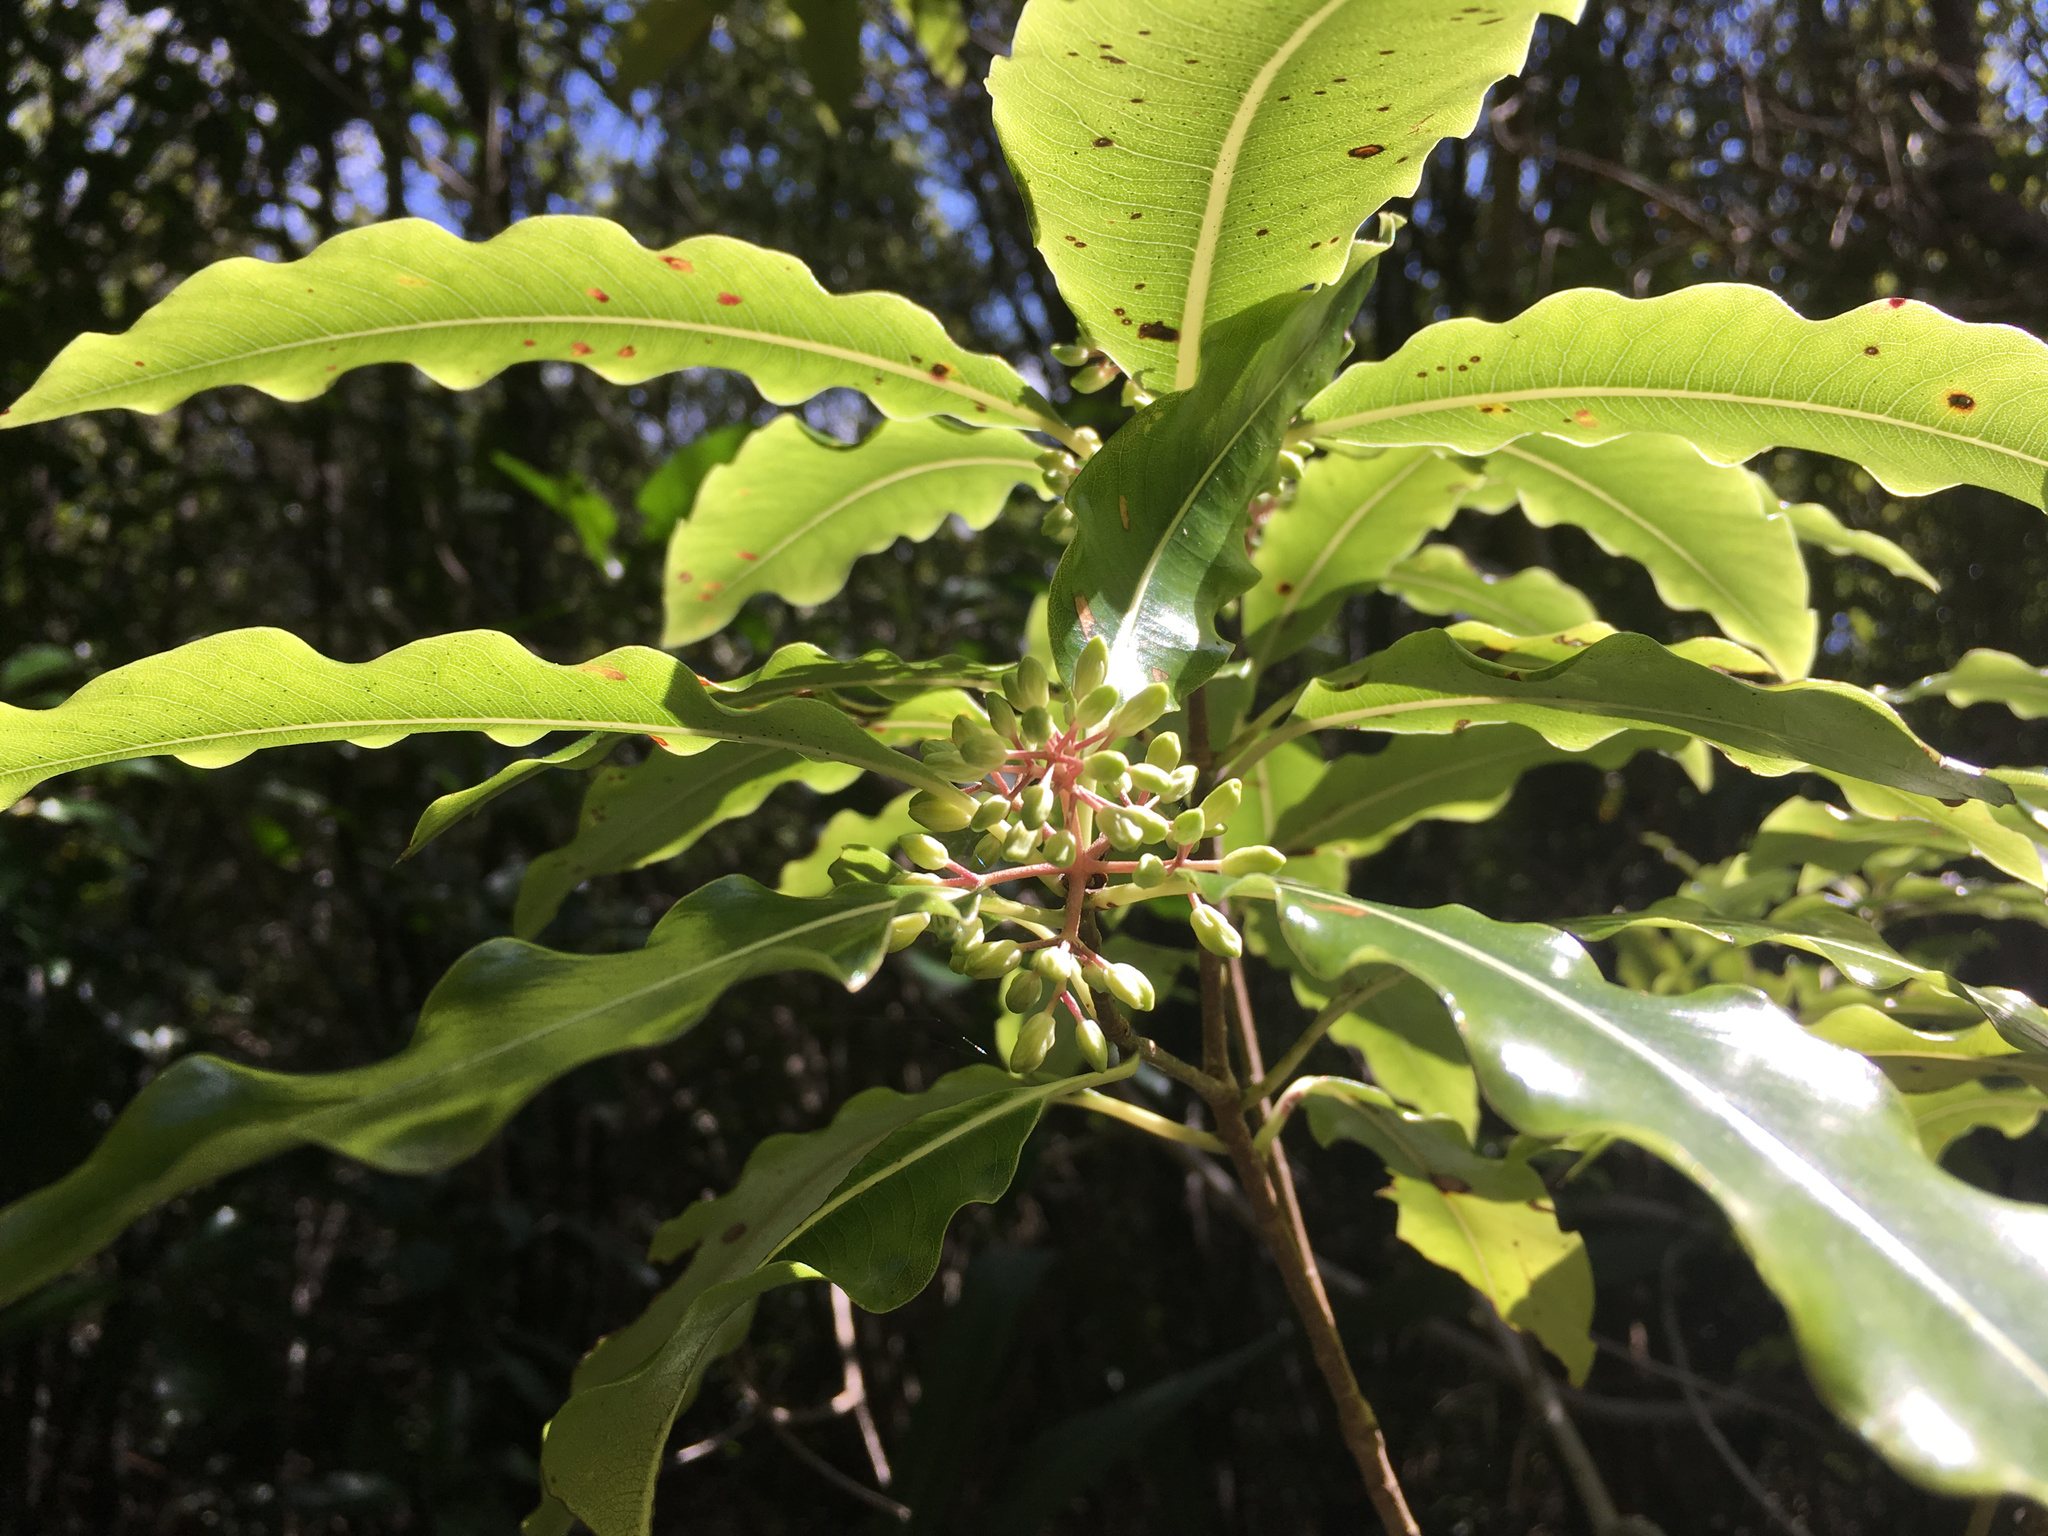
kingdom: Plantae
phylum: Tracheophyta
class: Magnoliopsida
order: Apiales
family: Pittosporaceae
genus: Pittosporum
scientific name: Pittosporum eugenioides
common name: Lemonwood
